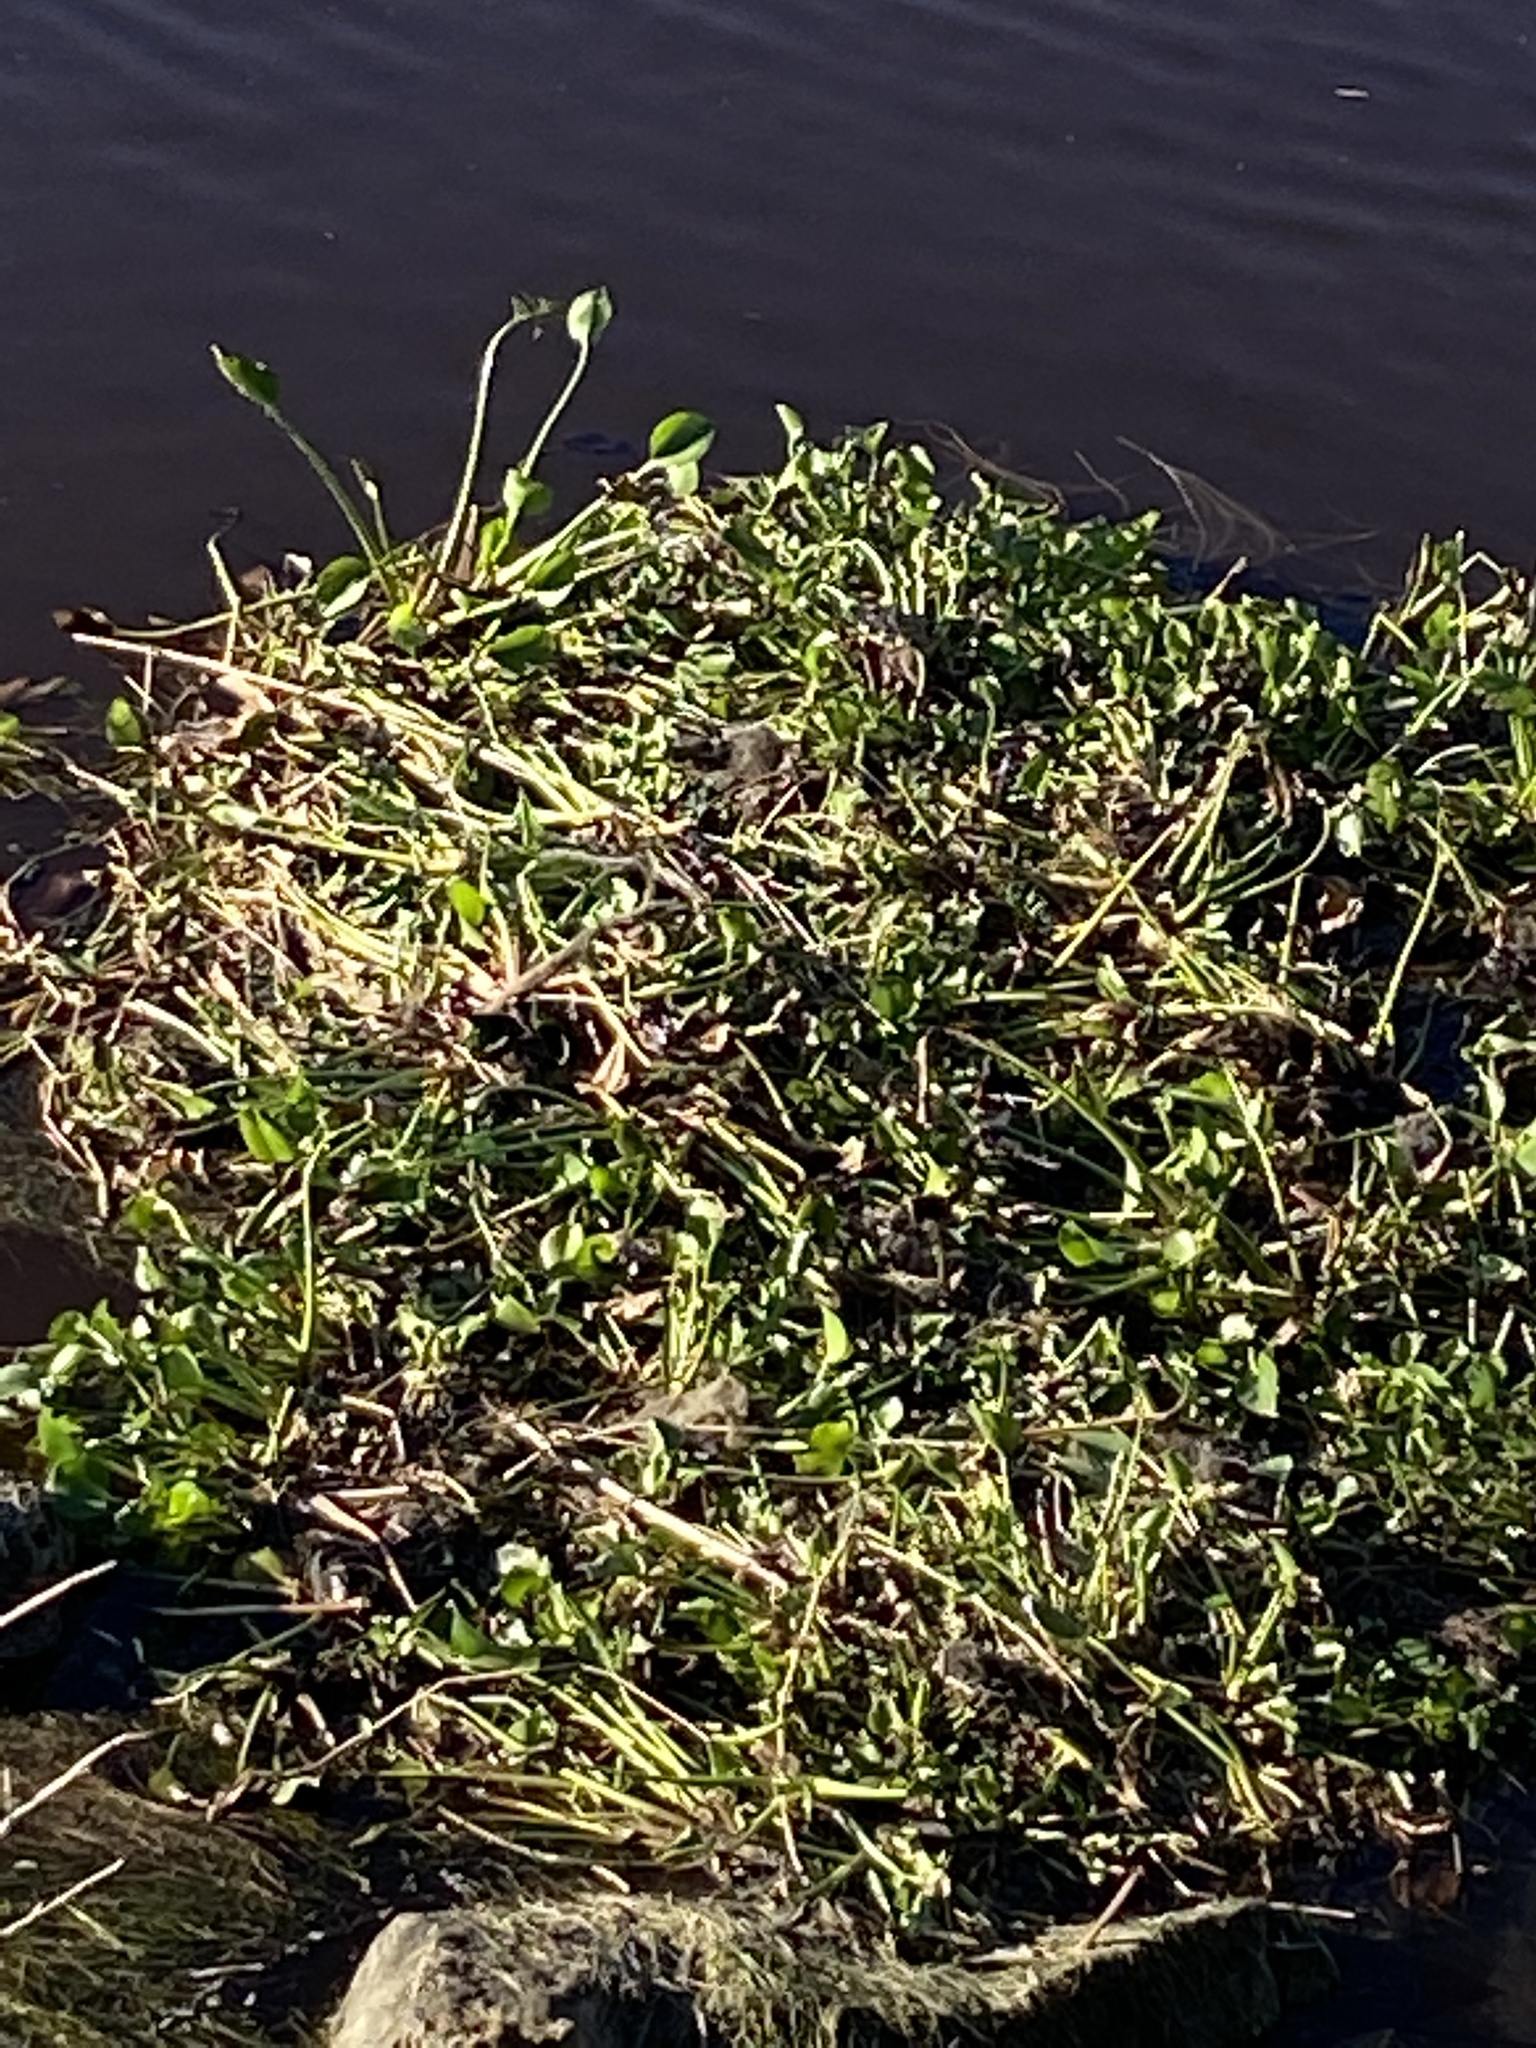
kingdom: Plantae
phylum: Tracheophyta
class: Liliopsida
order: Commelinales
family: Pontederiaceae
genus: Pontederia
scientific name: Pontederia crassipes
